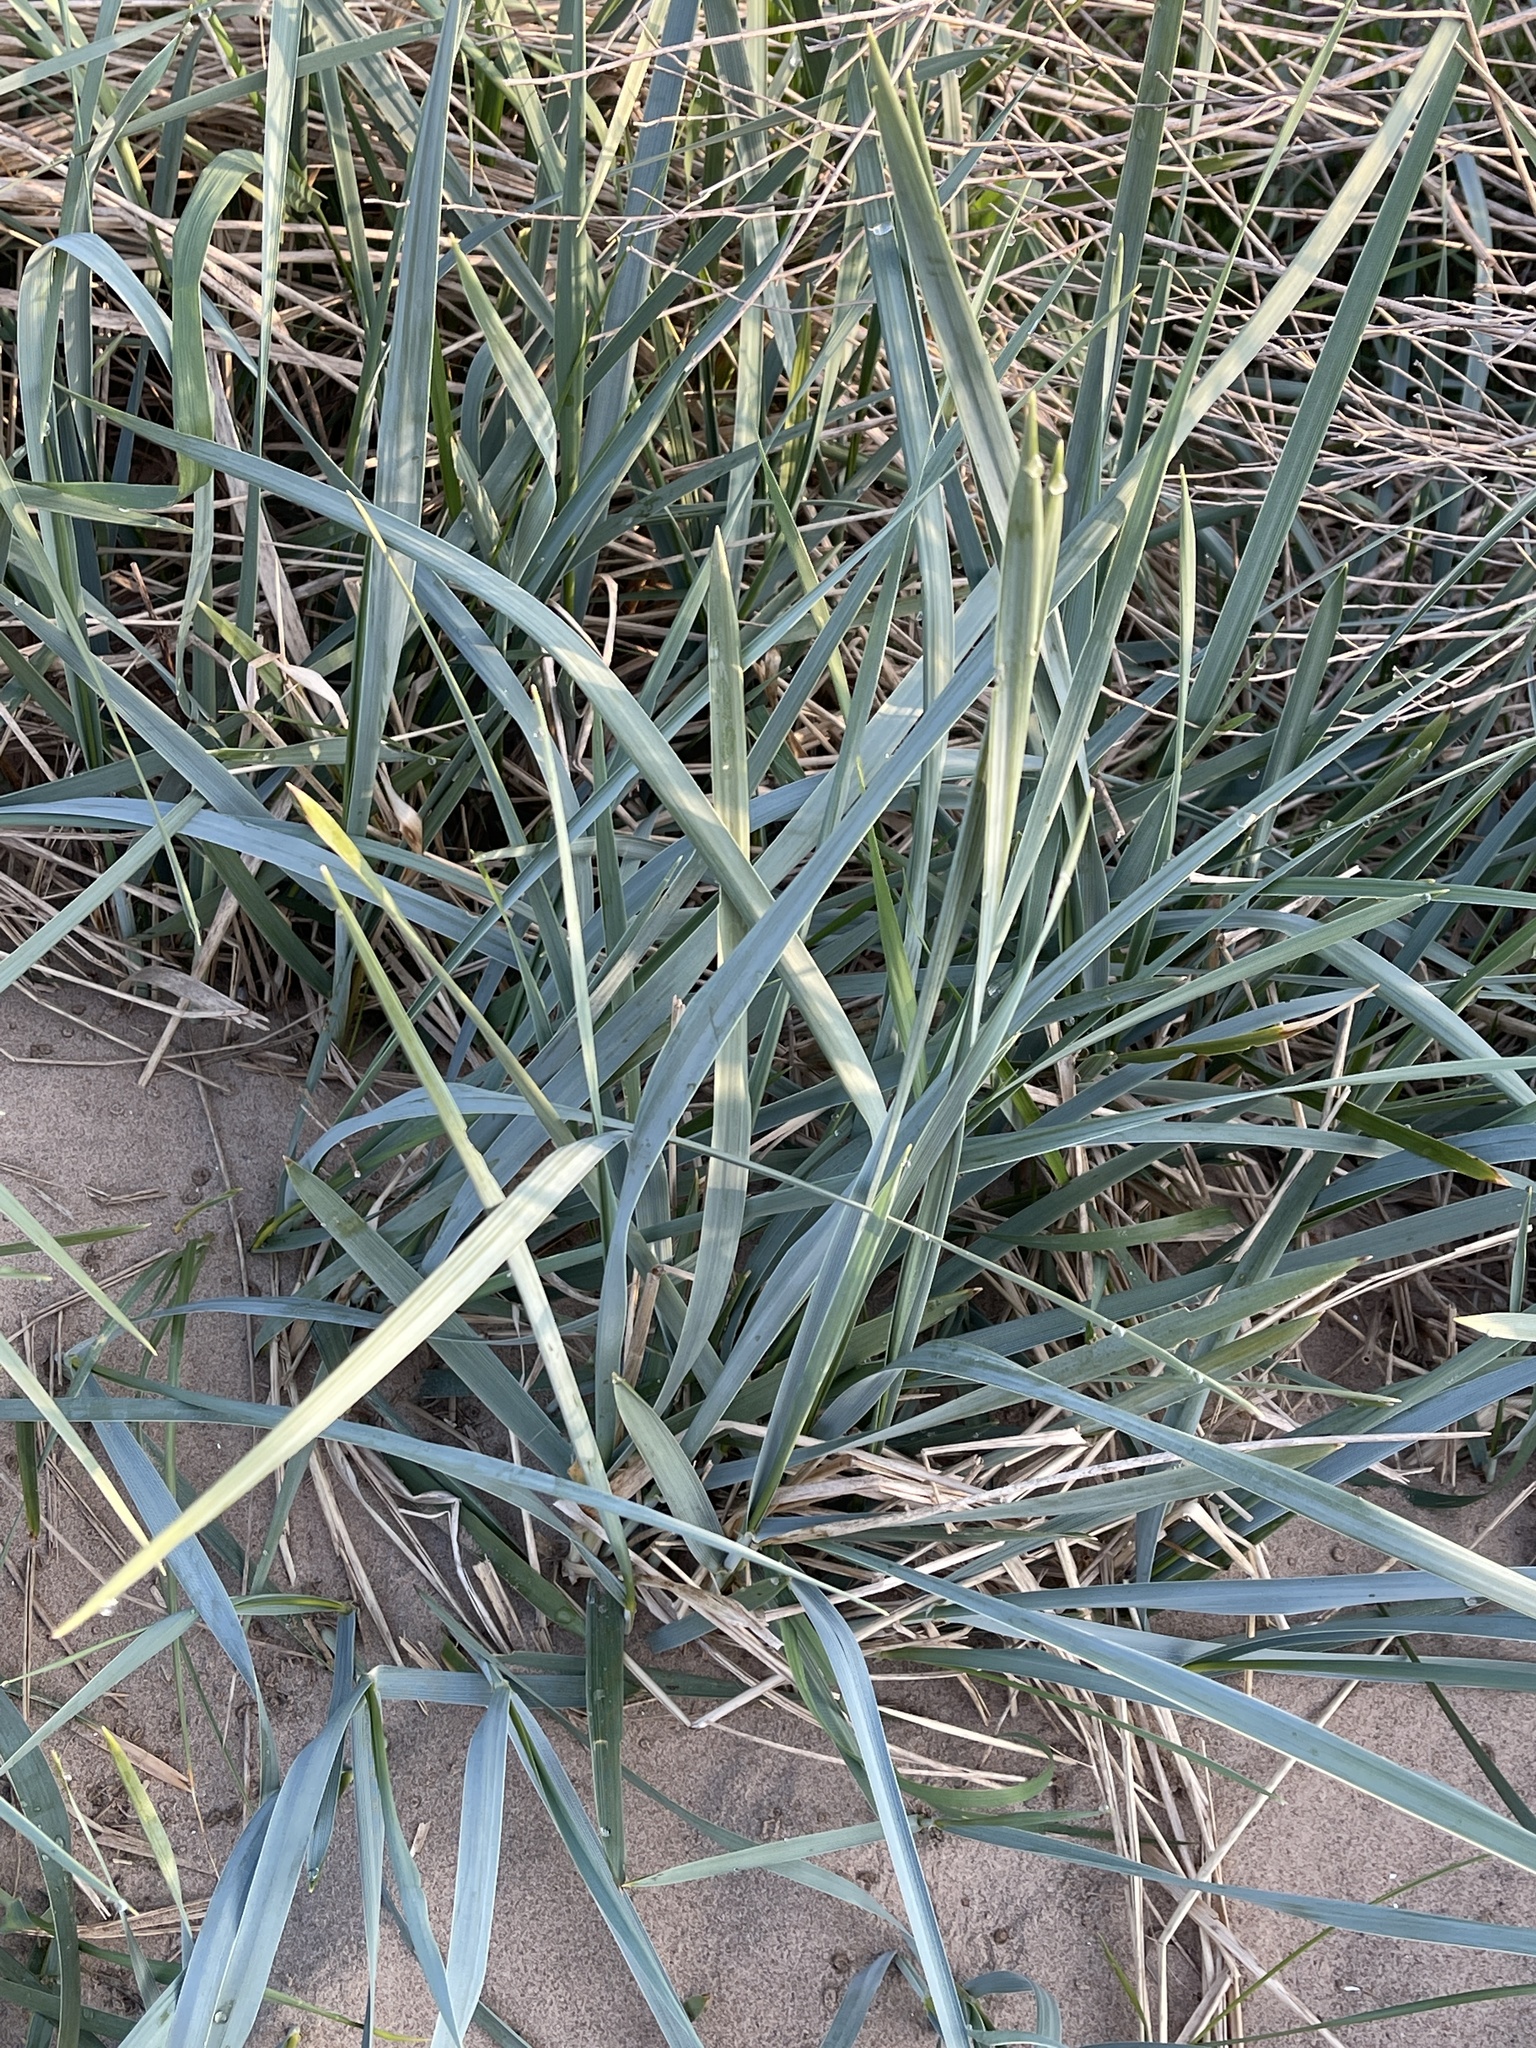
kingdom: Plantae
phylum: Tracheophyta
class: Liliopsida
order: Poales
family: Poaceae
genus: Leymus
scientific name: Leymus arenarius
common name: Lyme-grass
